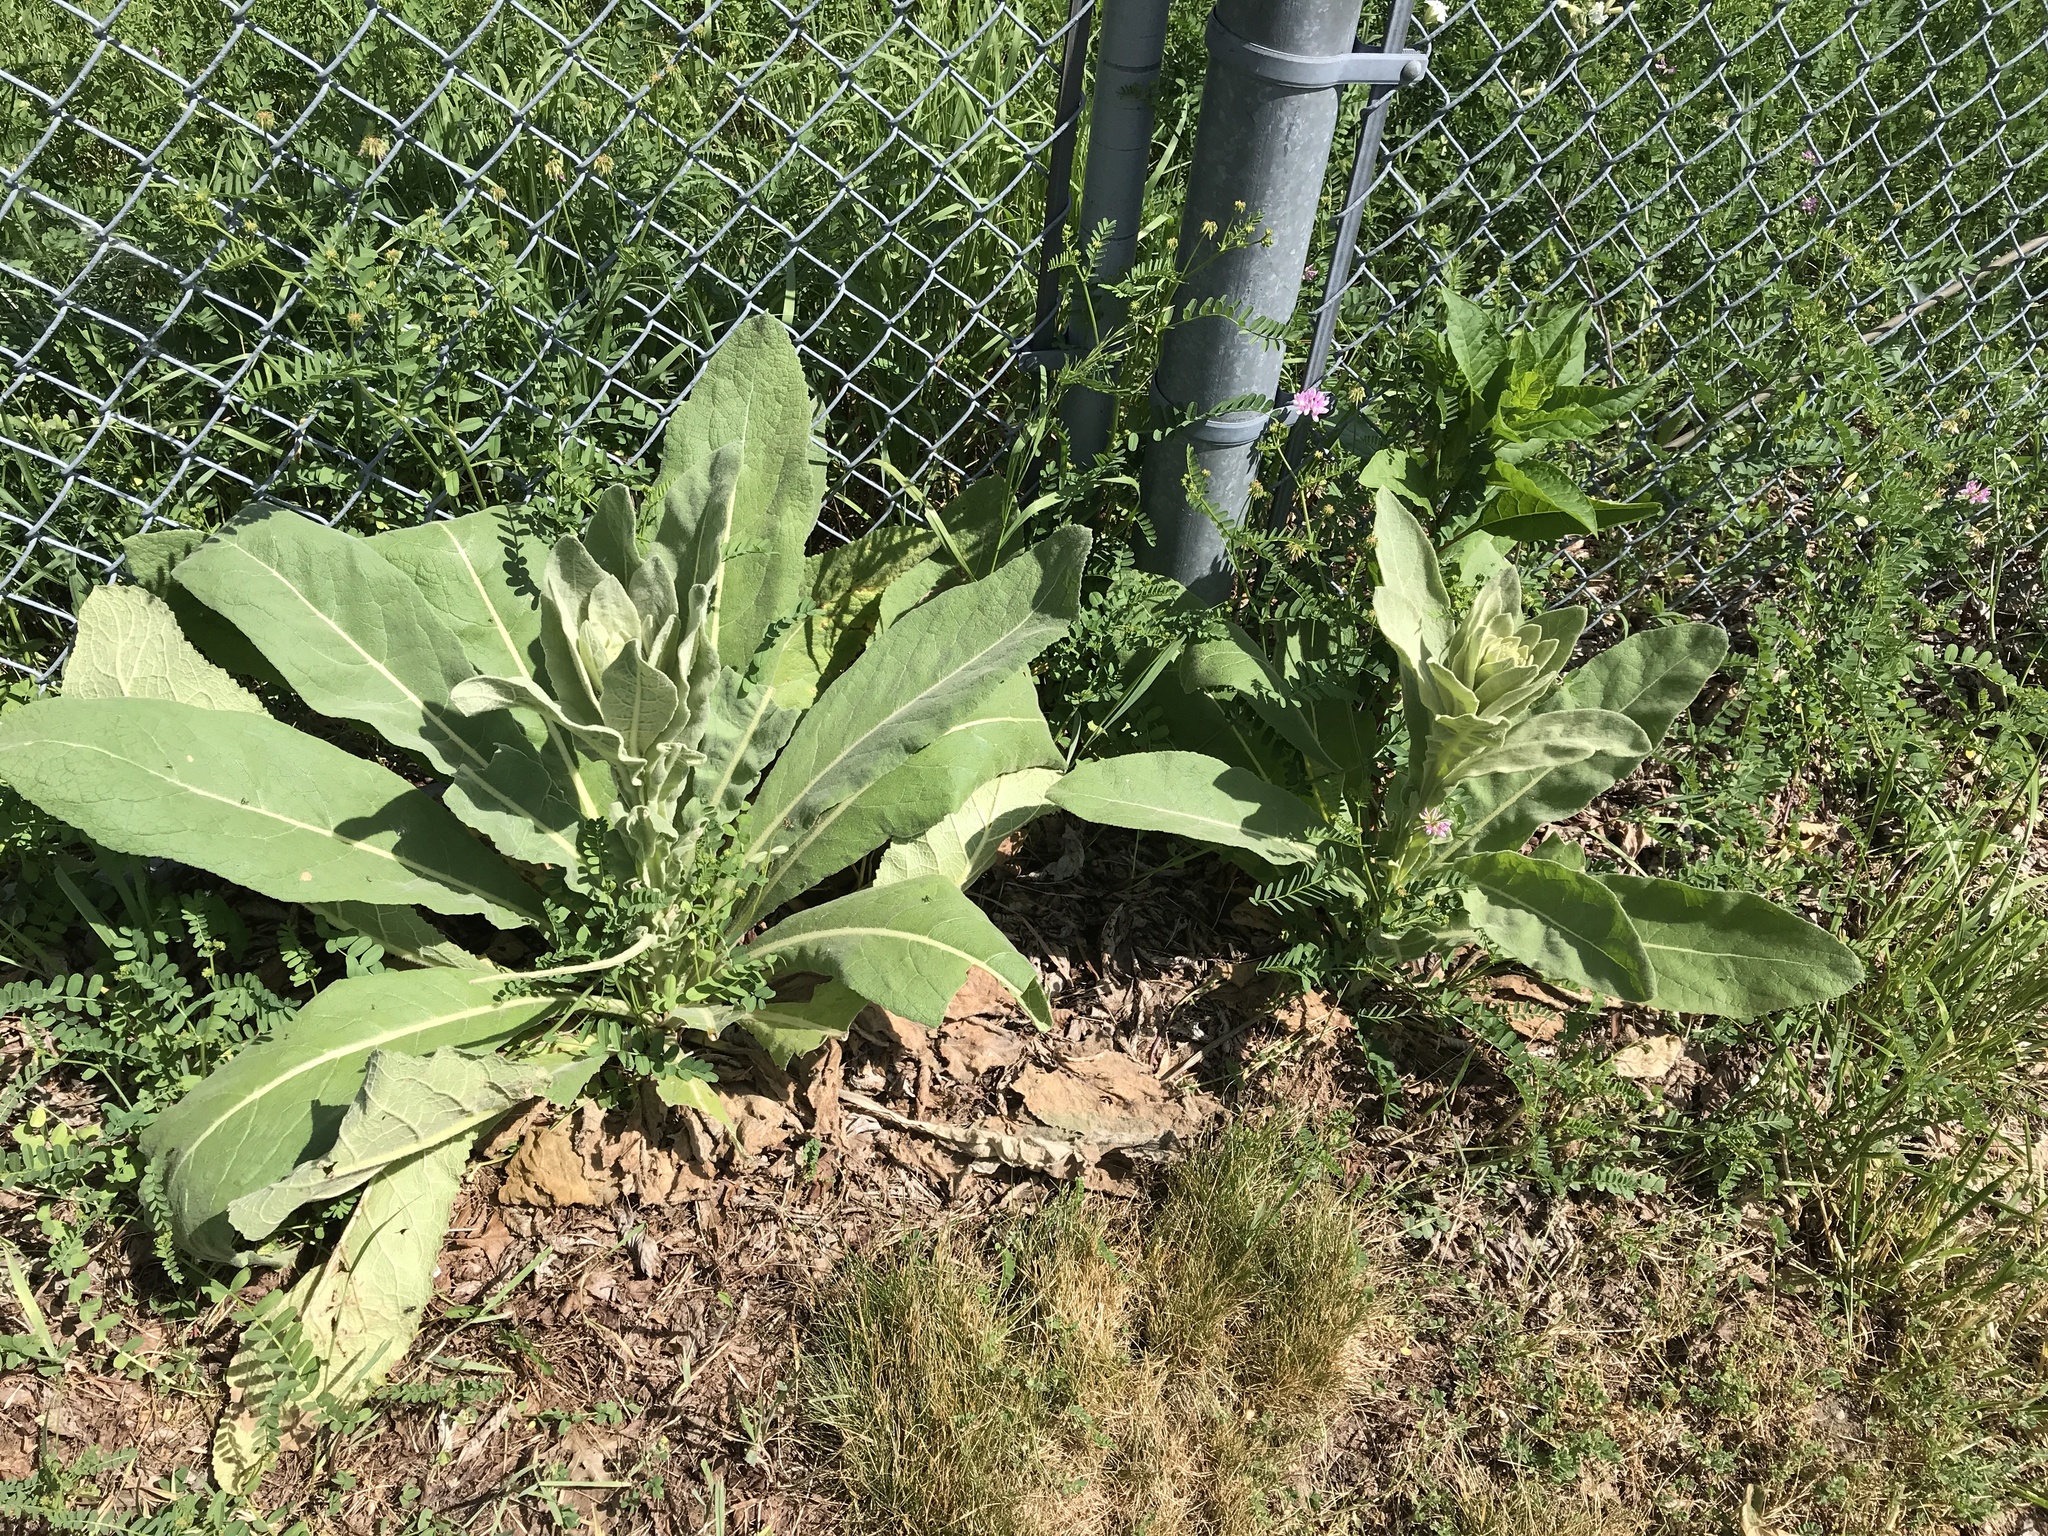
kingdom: Plantae
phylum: Tracheophyta
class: Magnoliopsida
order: Lamiales
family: Scrophulariaceae
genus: Verbascum
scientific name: Verbascum thapsus
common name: Common mullein
